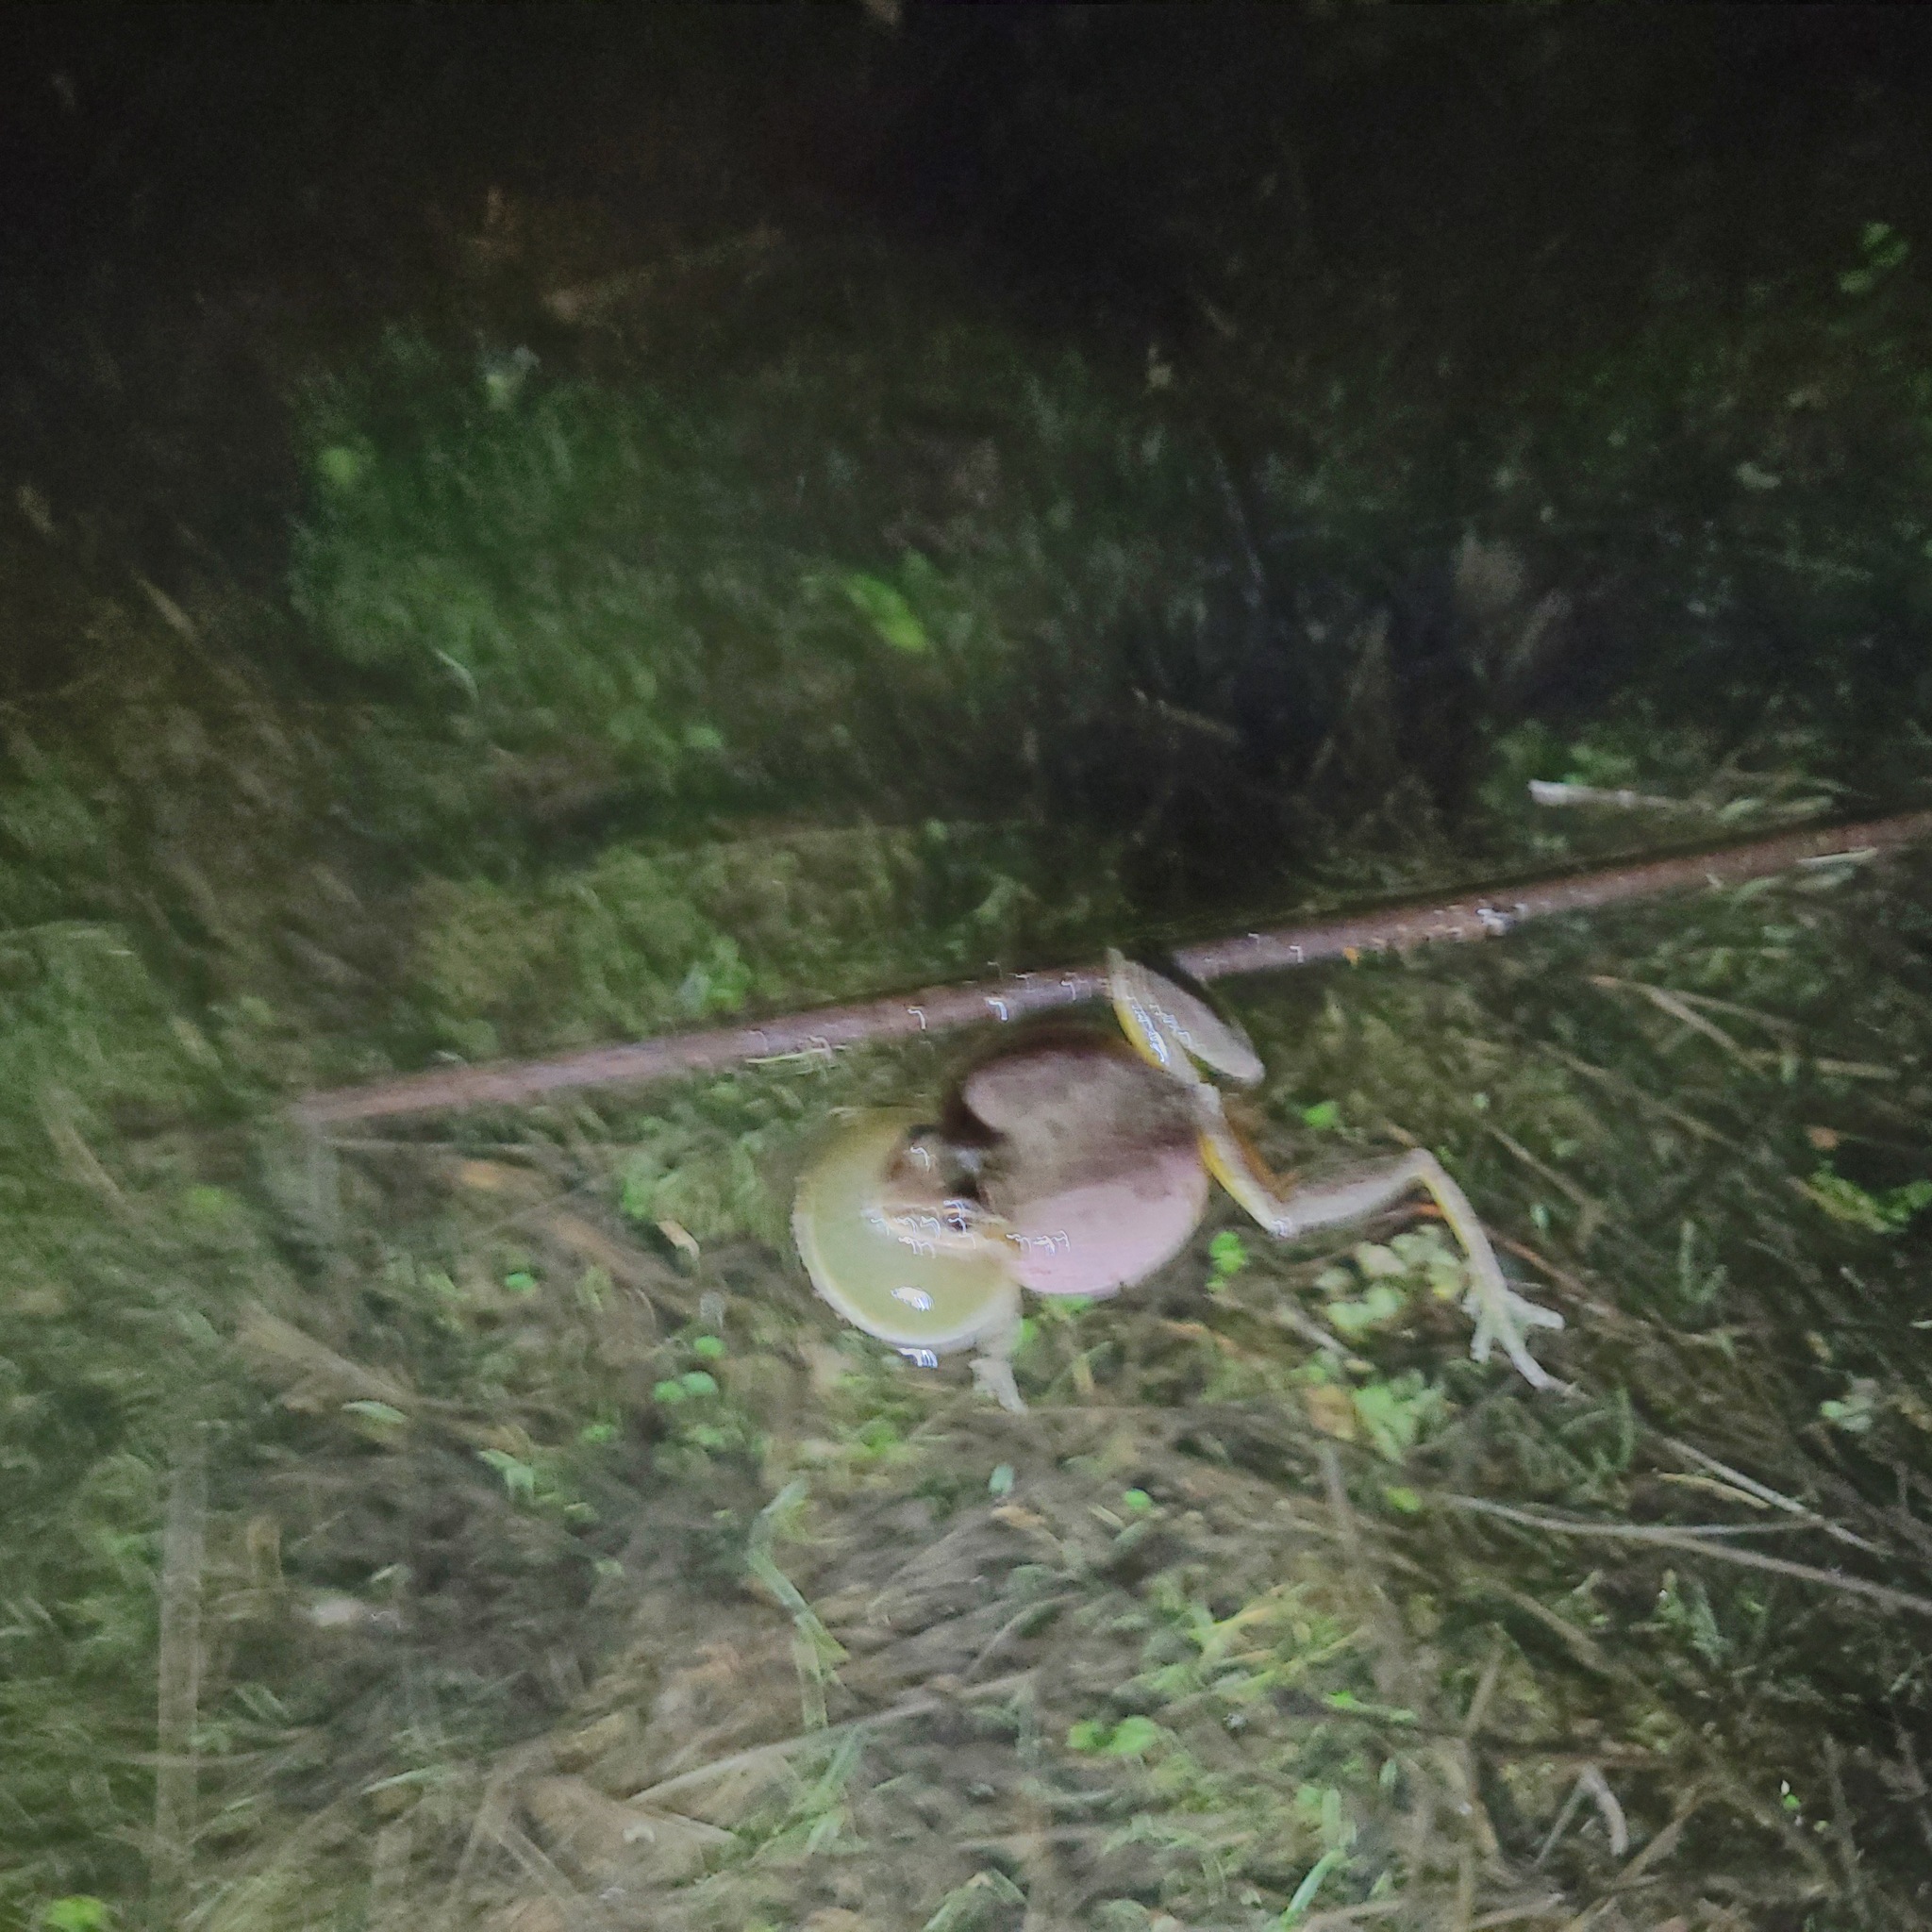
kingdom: Animalia
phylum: Chordata
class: Amphibia
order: Anura
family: Hylidae
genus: Pseudacris
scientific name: Pseudacris regilla
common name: Pacific chorus frog
